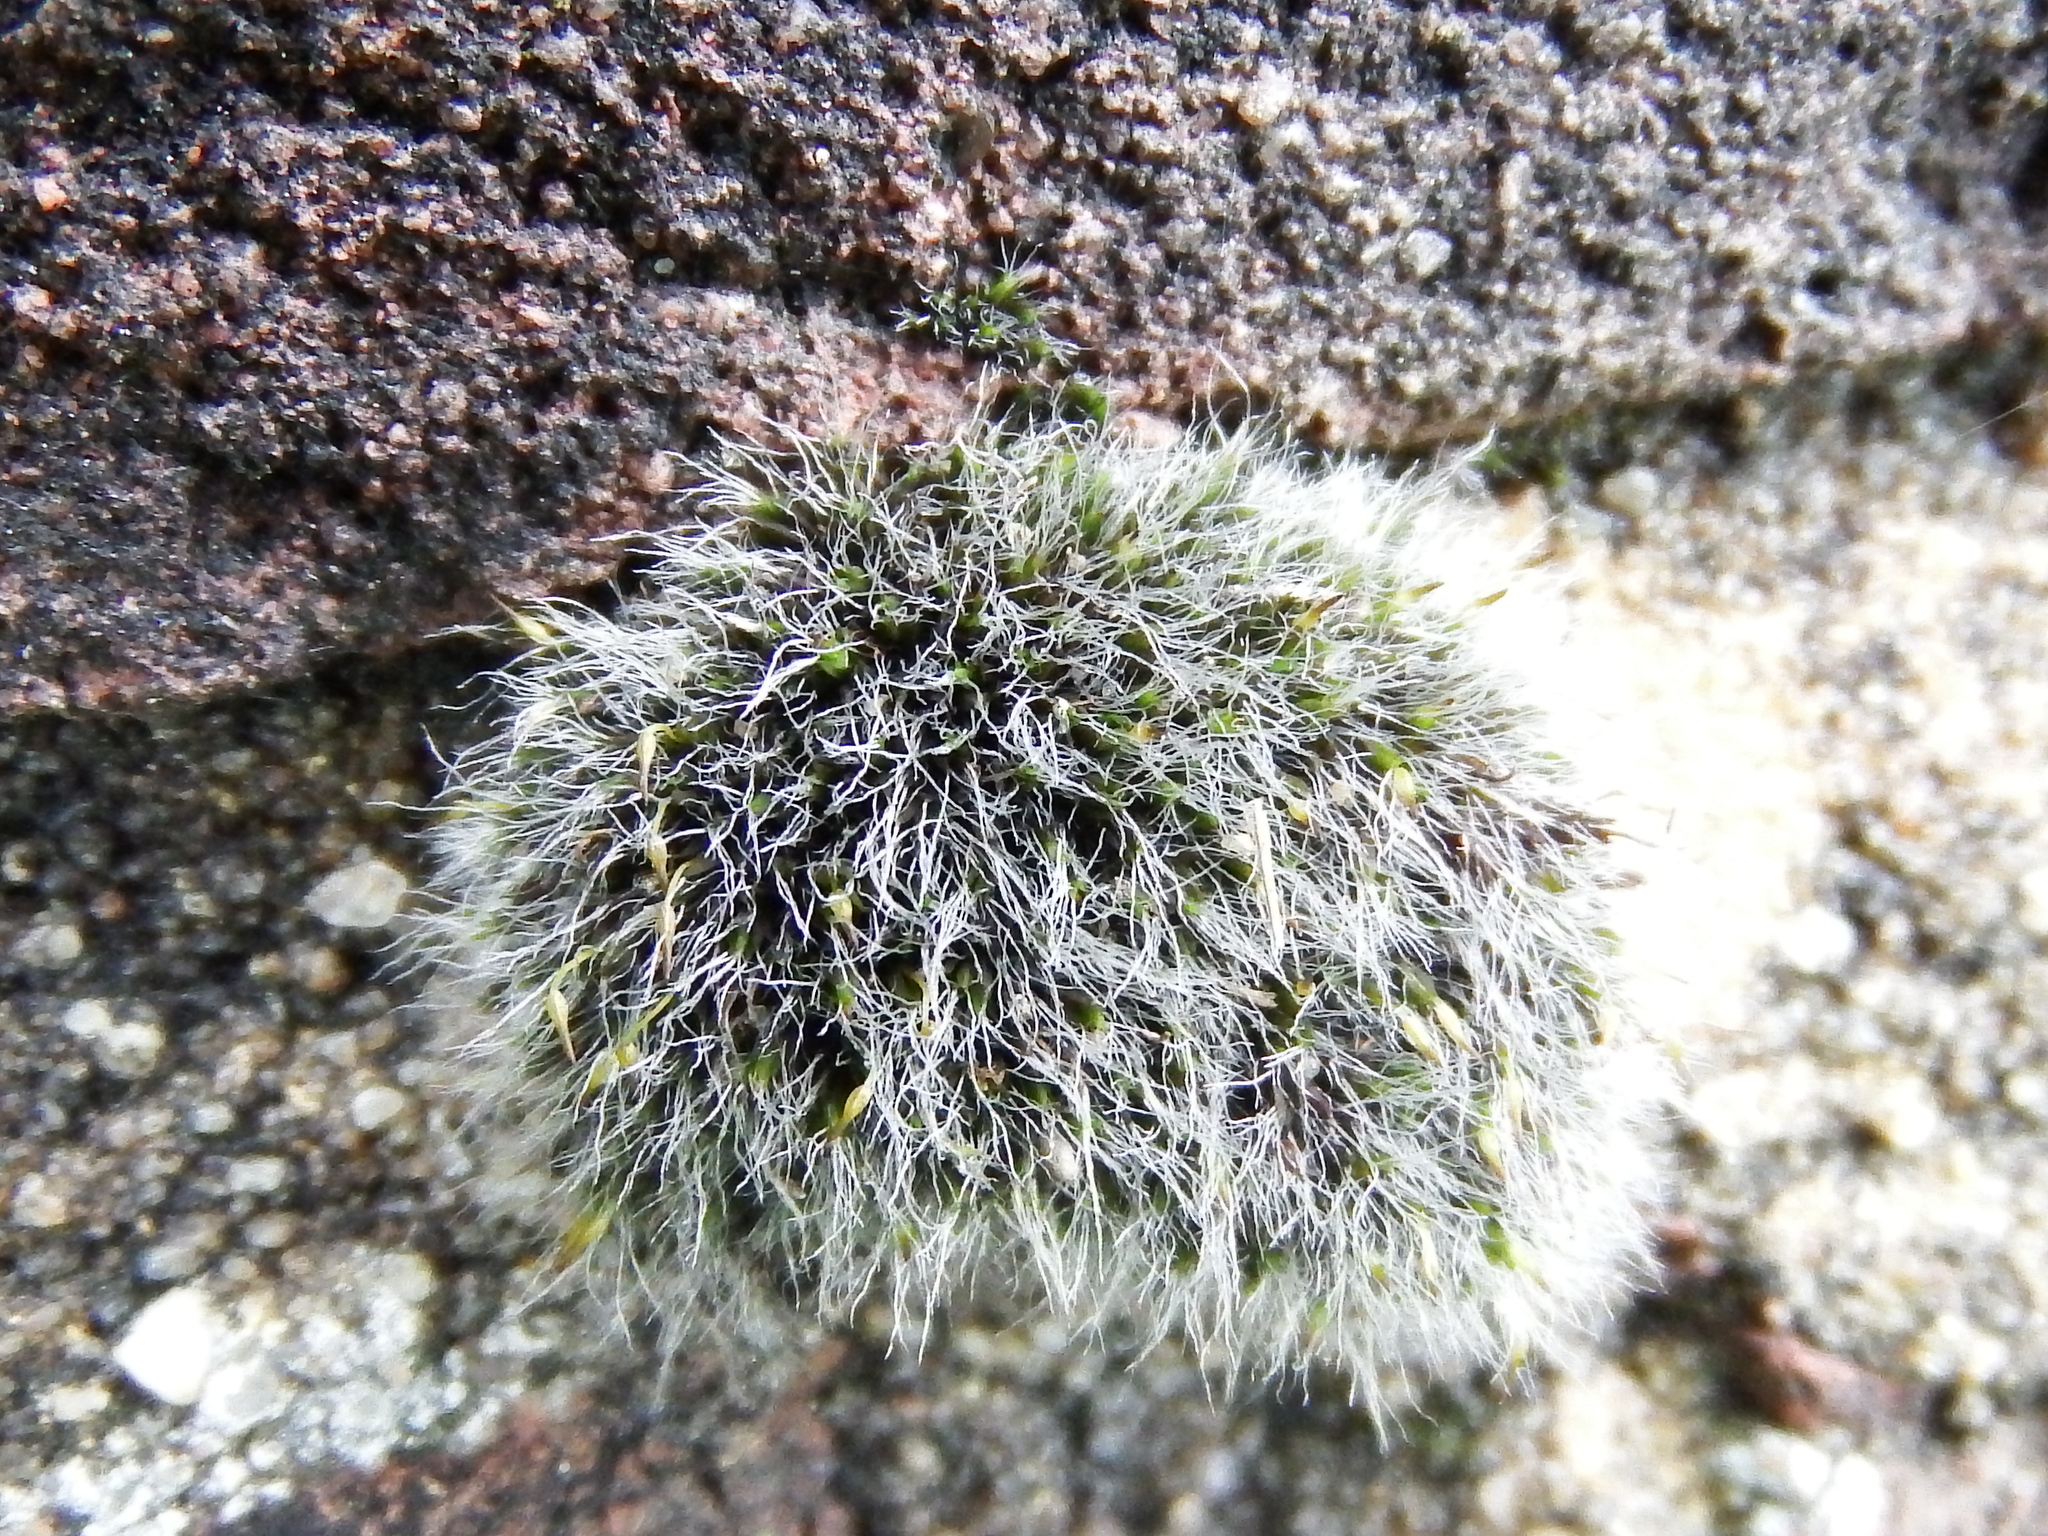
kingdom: Plantae
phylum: Bryophyta
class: Bryopsida
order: Grimmiales
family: Grimmiaceae
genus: Grimmia
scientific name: Grimmia pulvinata
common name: Grey-cushioned grimmia
